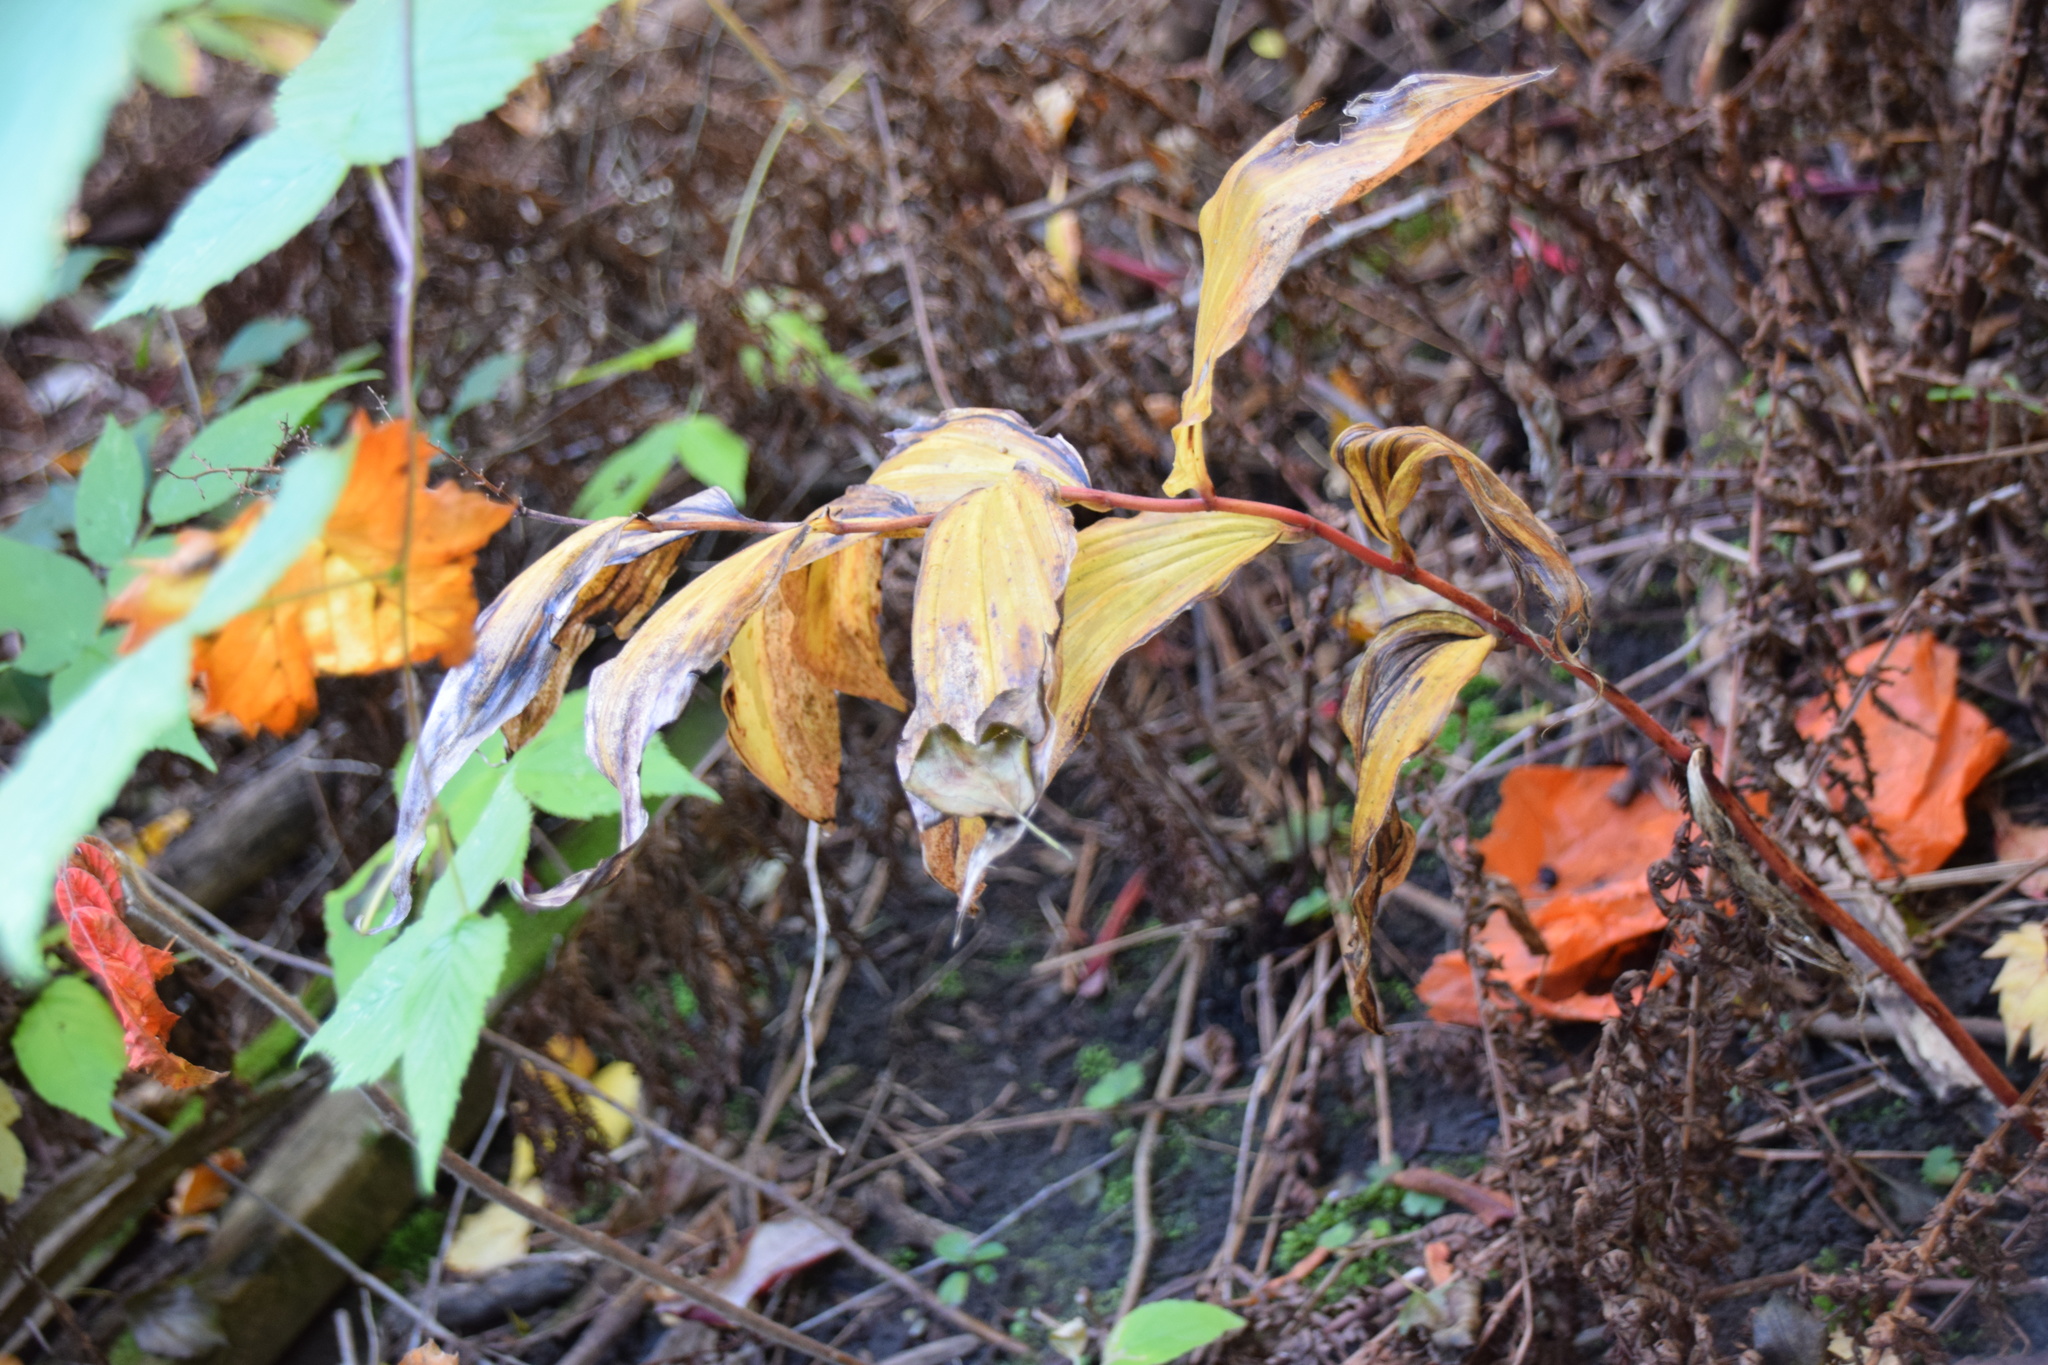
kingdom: Plantae
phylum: Tracheophyta
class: Liliopsida
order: Asparagales
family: Asparagaceae
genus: Maianthemum
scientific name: Maianthemum racemosum
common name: False spikenard
